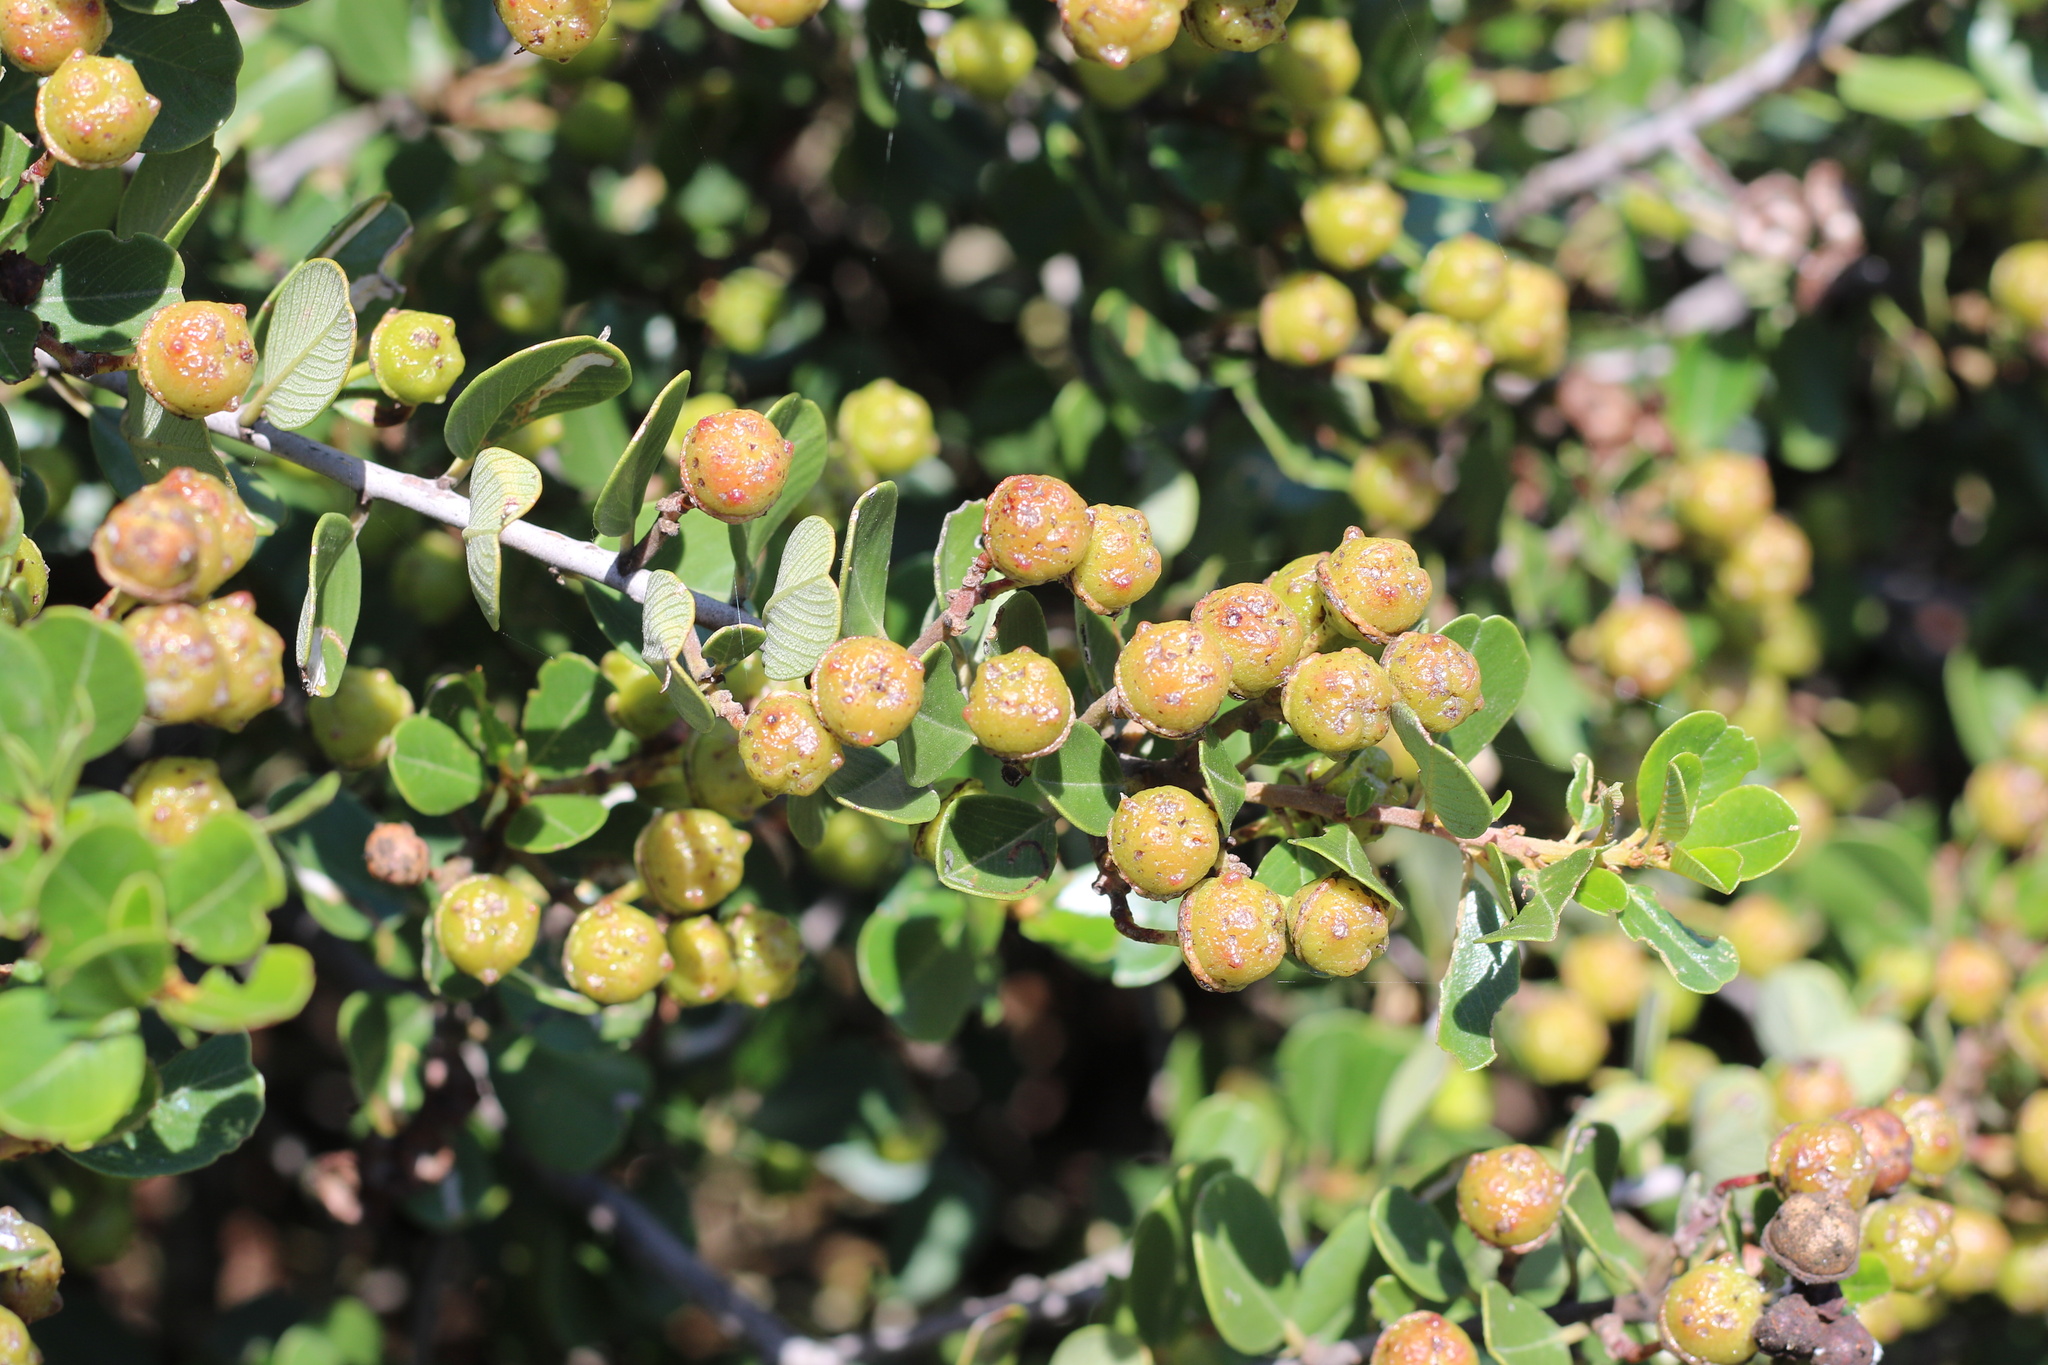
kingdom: Plantae
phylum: Tracheophyta
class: Magnoliopsida
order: Rosales
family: Rhamnaceae
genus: Ceanothus
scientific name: Ceanothus megacarpus
